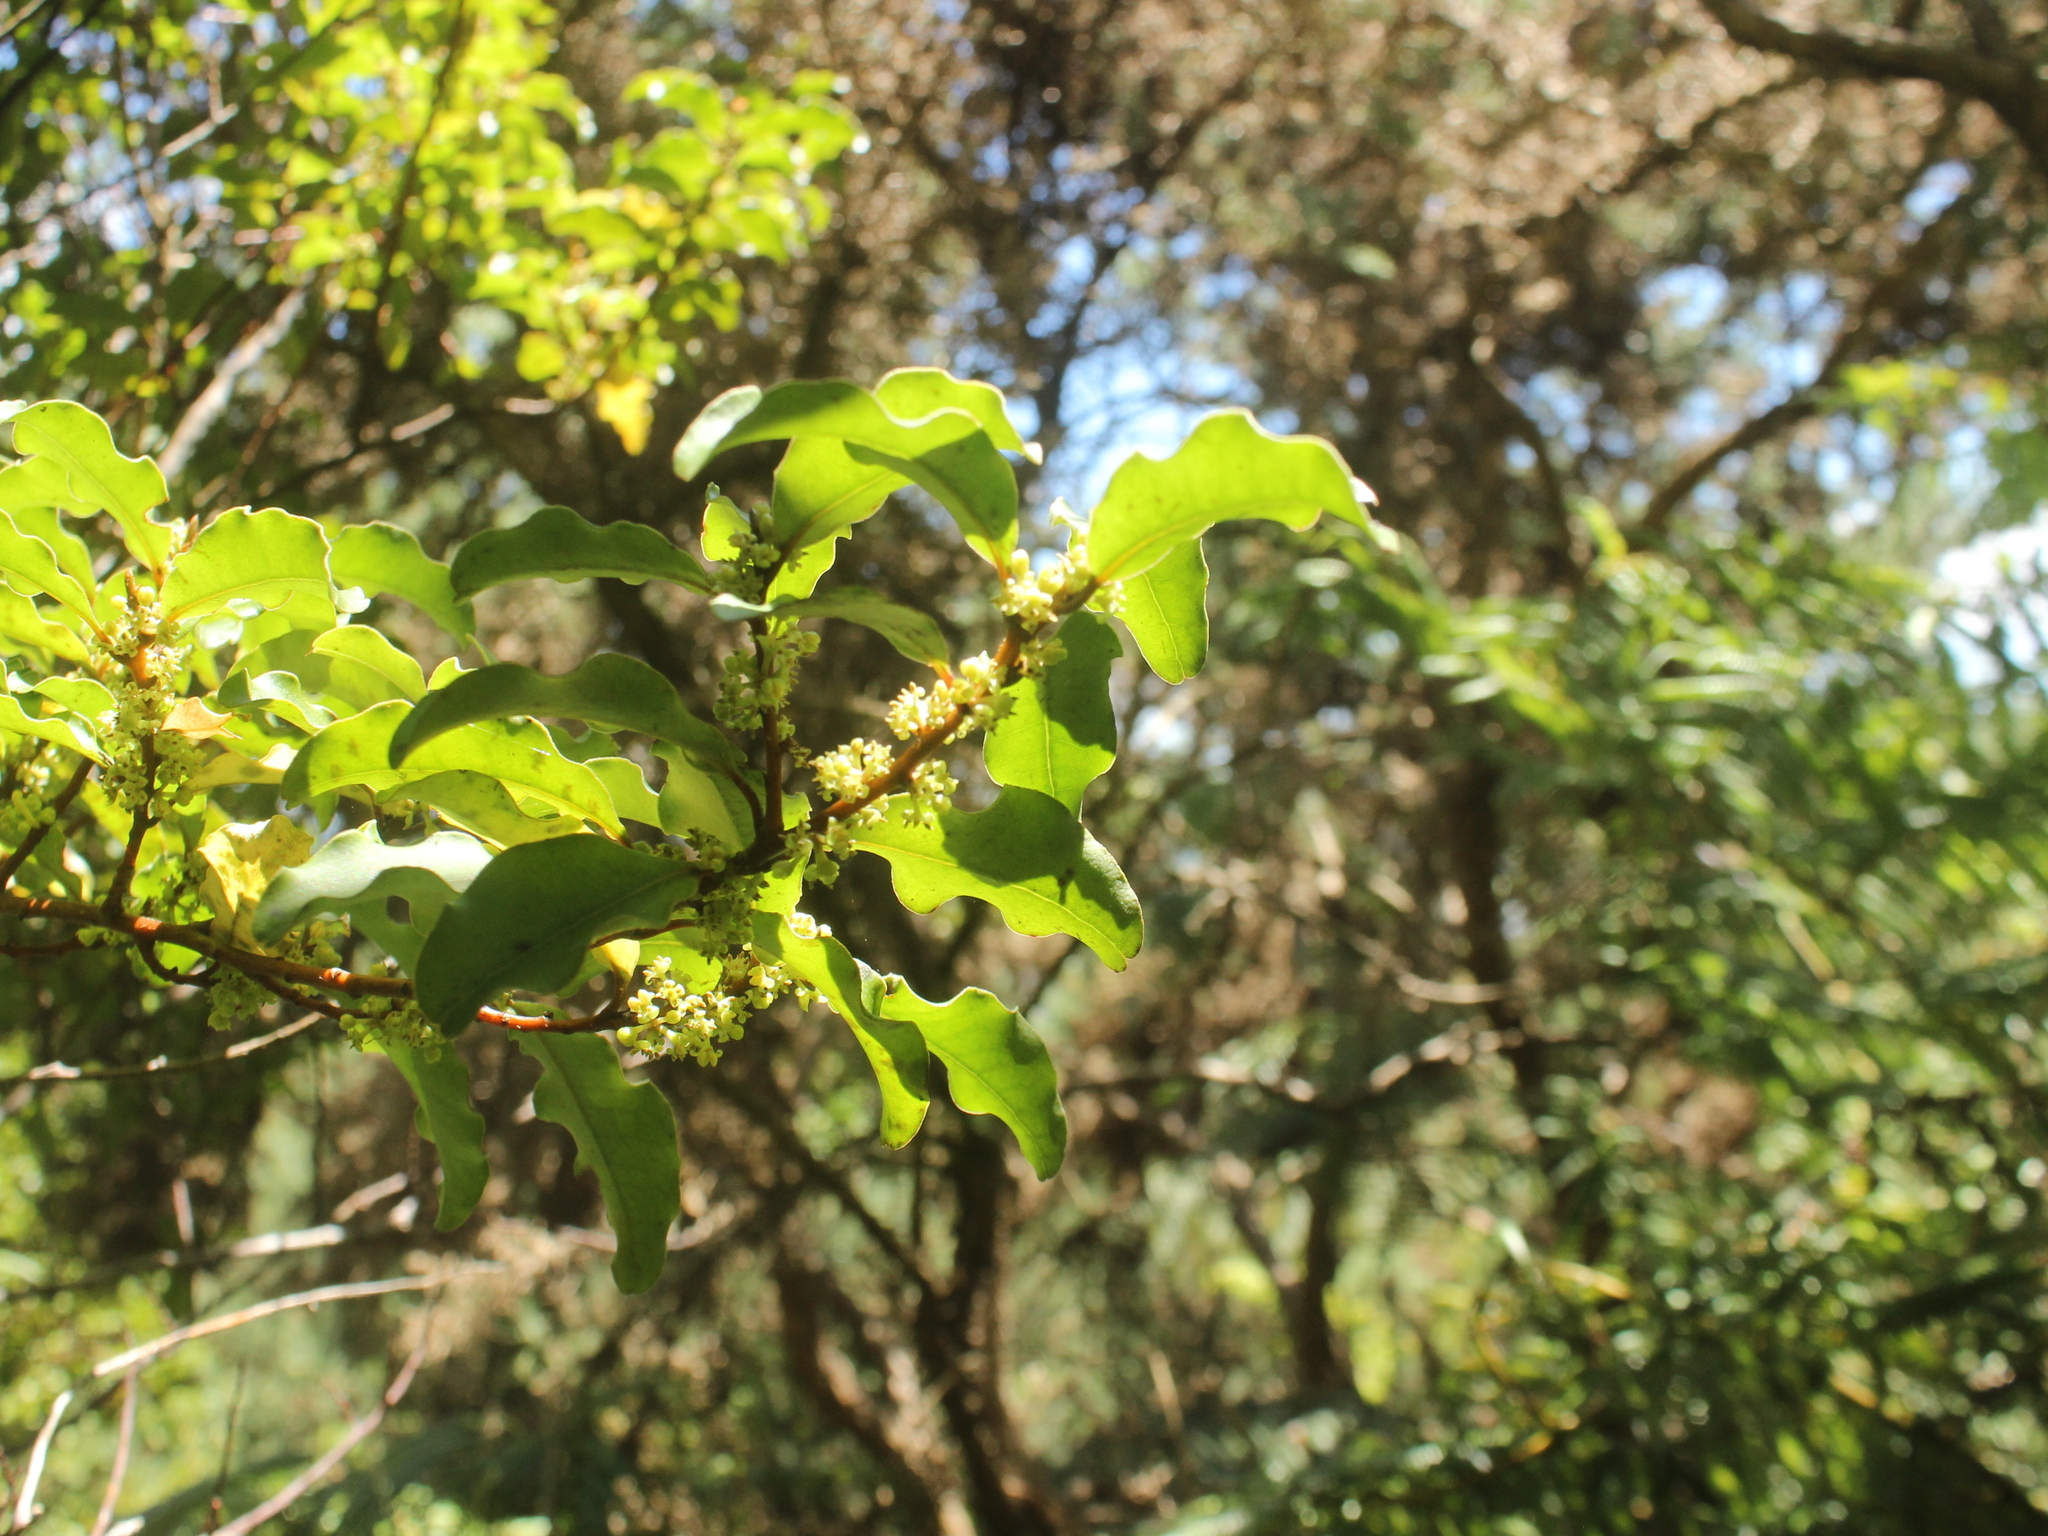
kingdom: Plantae
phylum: Tracheophyta
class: Magnoliopsida
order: Ericales
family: Primulaceae
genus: Myrsine
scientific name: Myrsine australis
